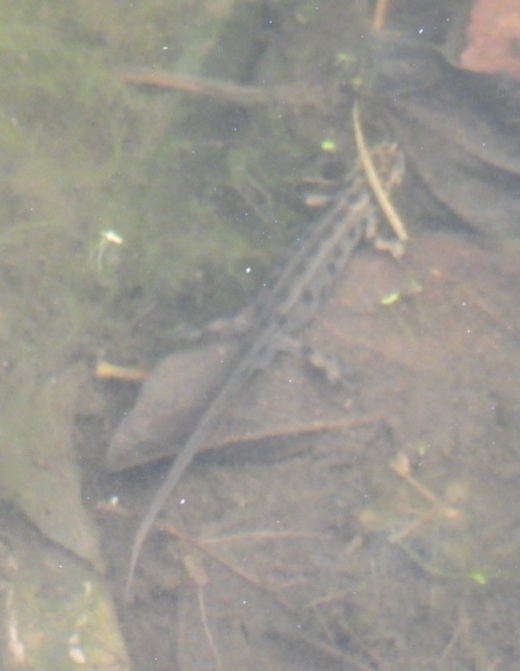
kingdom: Animalia
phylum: Chordata
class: Amphibia
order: Caudata
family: Salamandridae
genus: Lissotriton
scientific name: Lissotriton vulgaris
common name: Smooth newt
